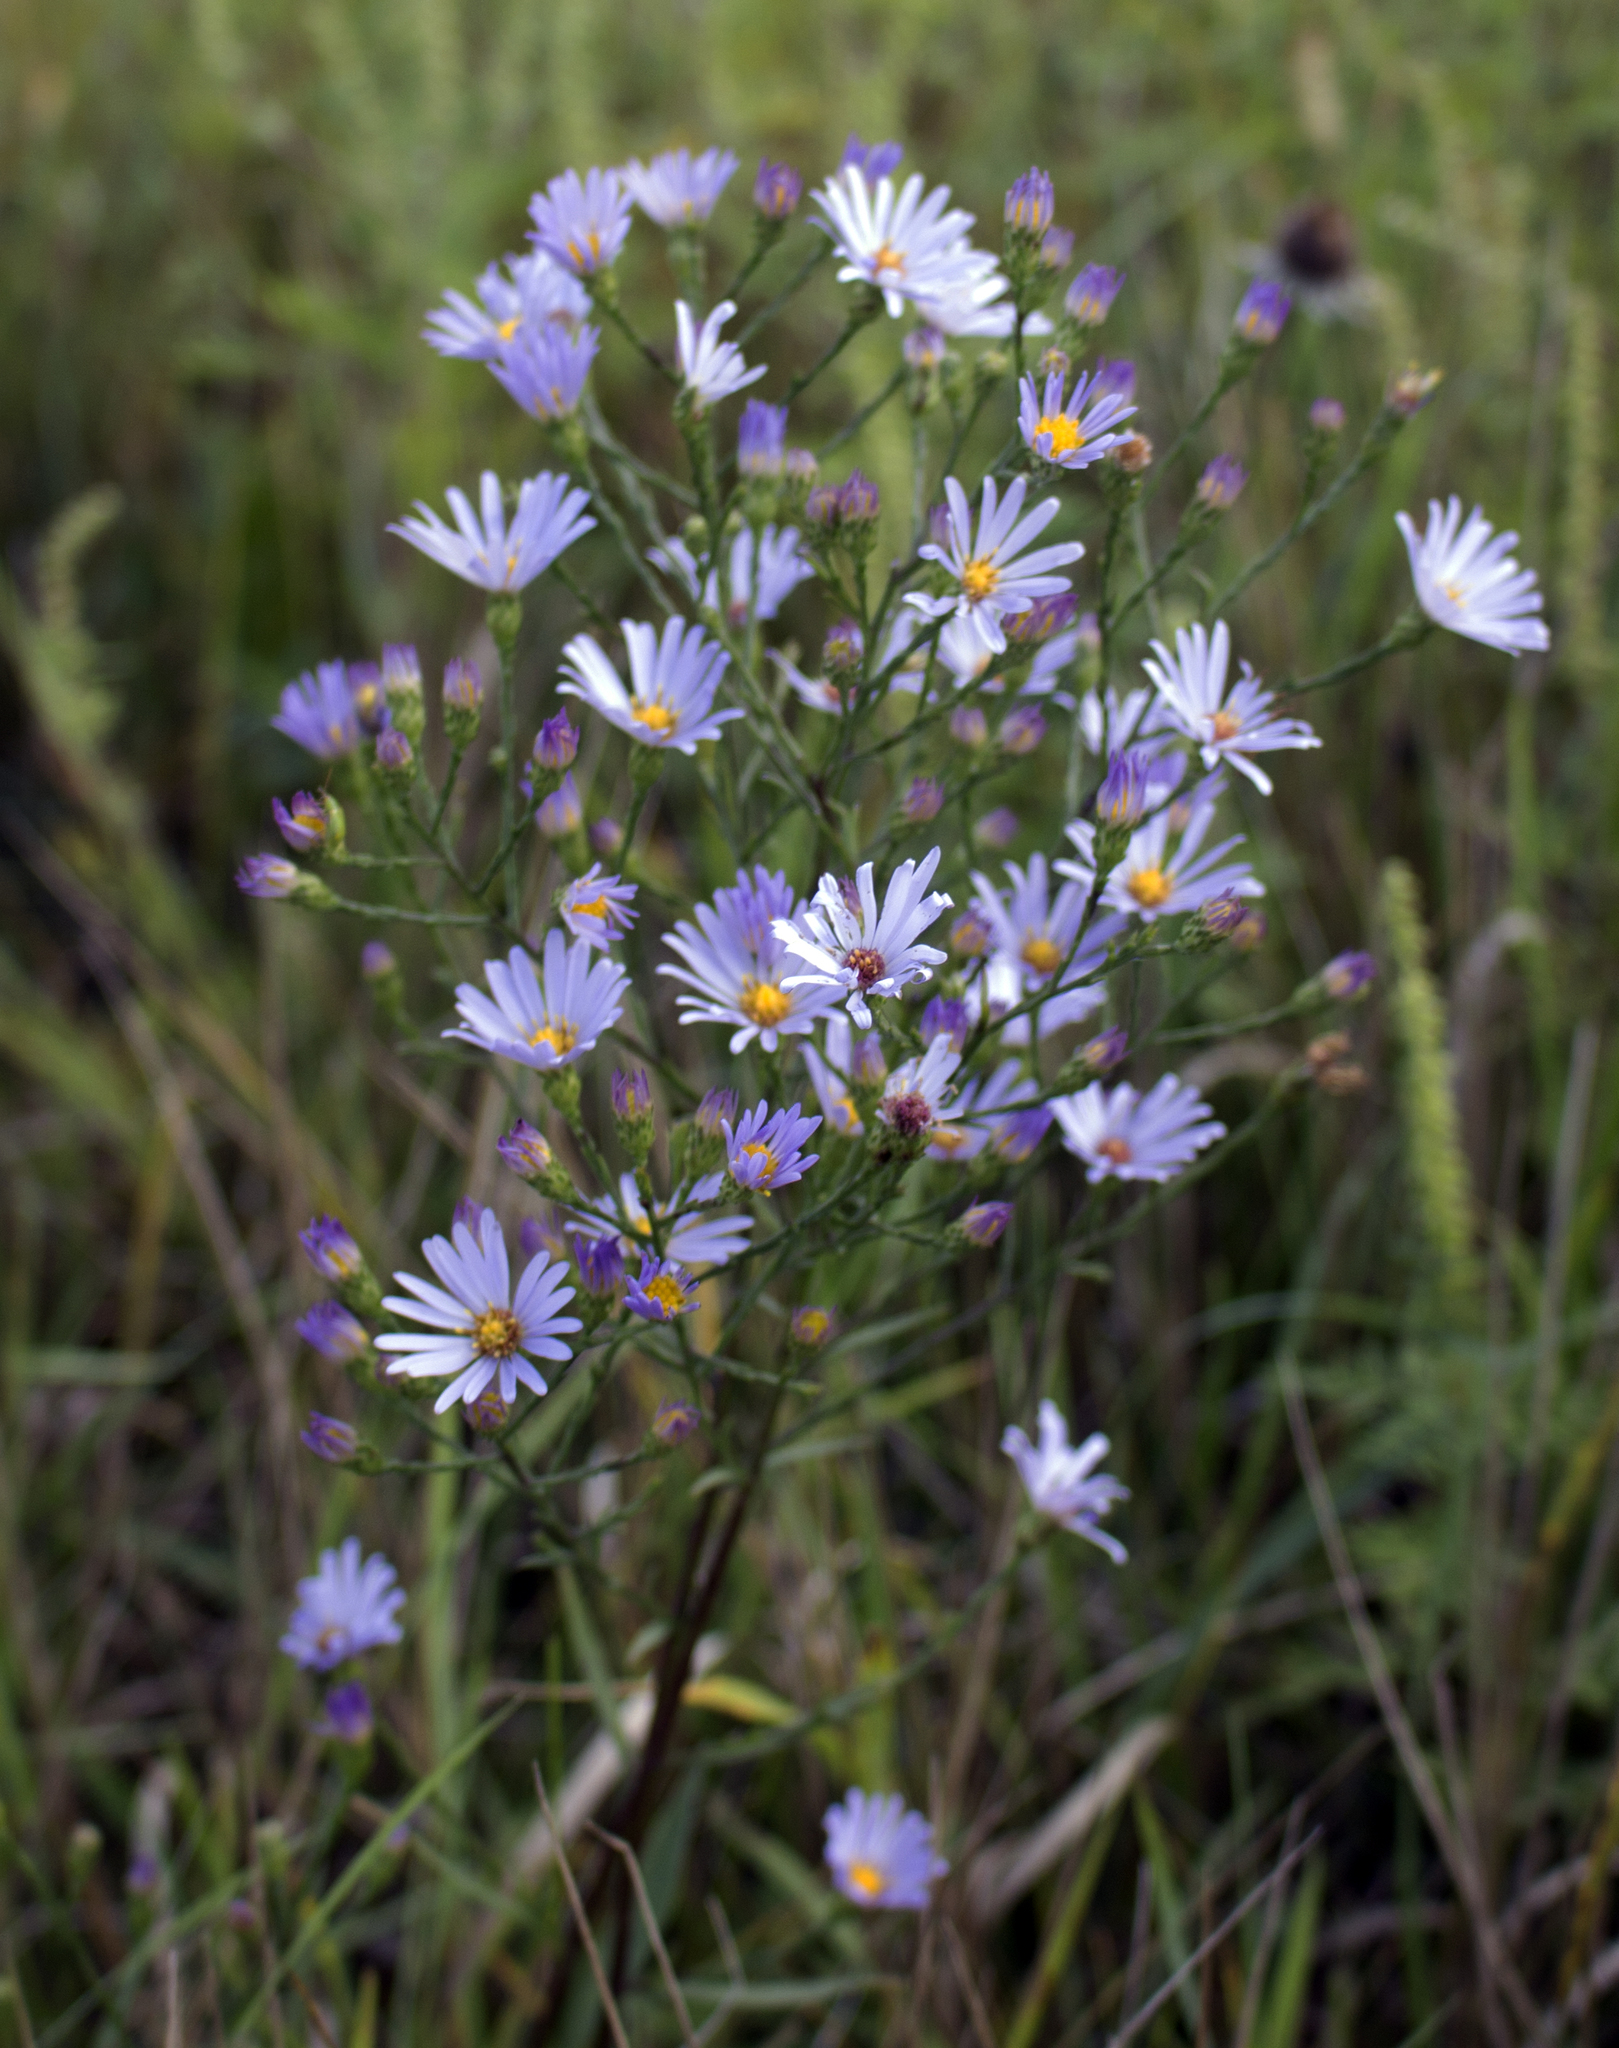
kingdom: Plantae
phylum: Tracheophyta
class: Magnoliopsida
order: Asterales
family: Asteraceae
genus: Symphyotrichum
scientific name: Symphyotrichum oolentangiense
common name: Azure aster
